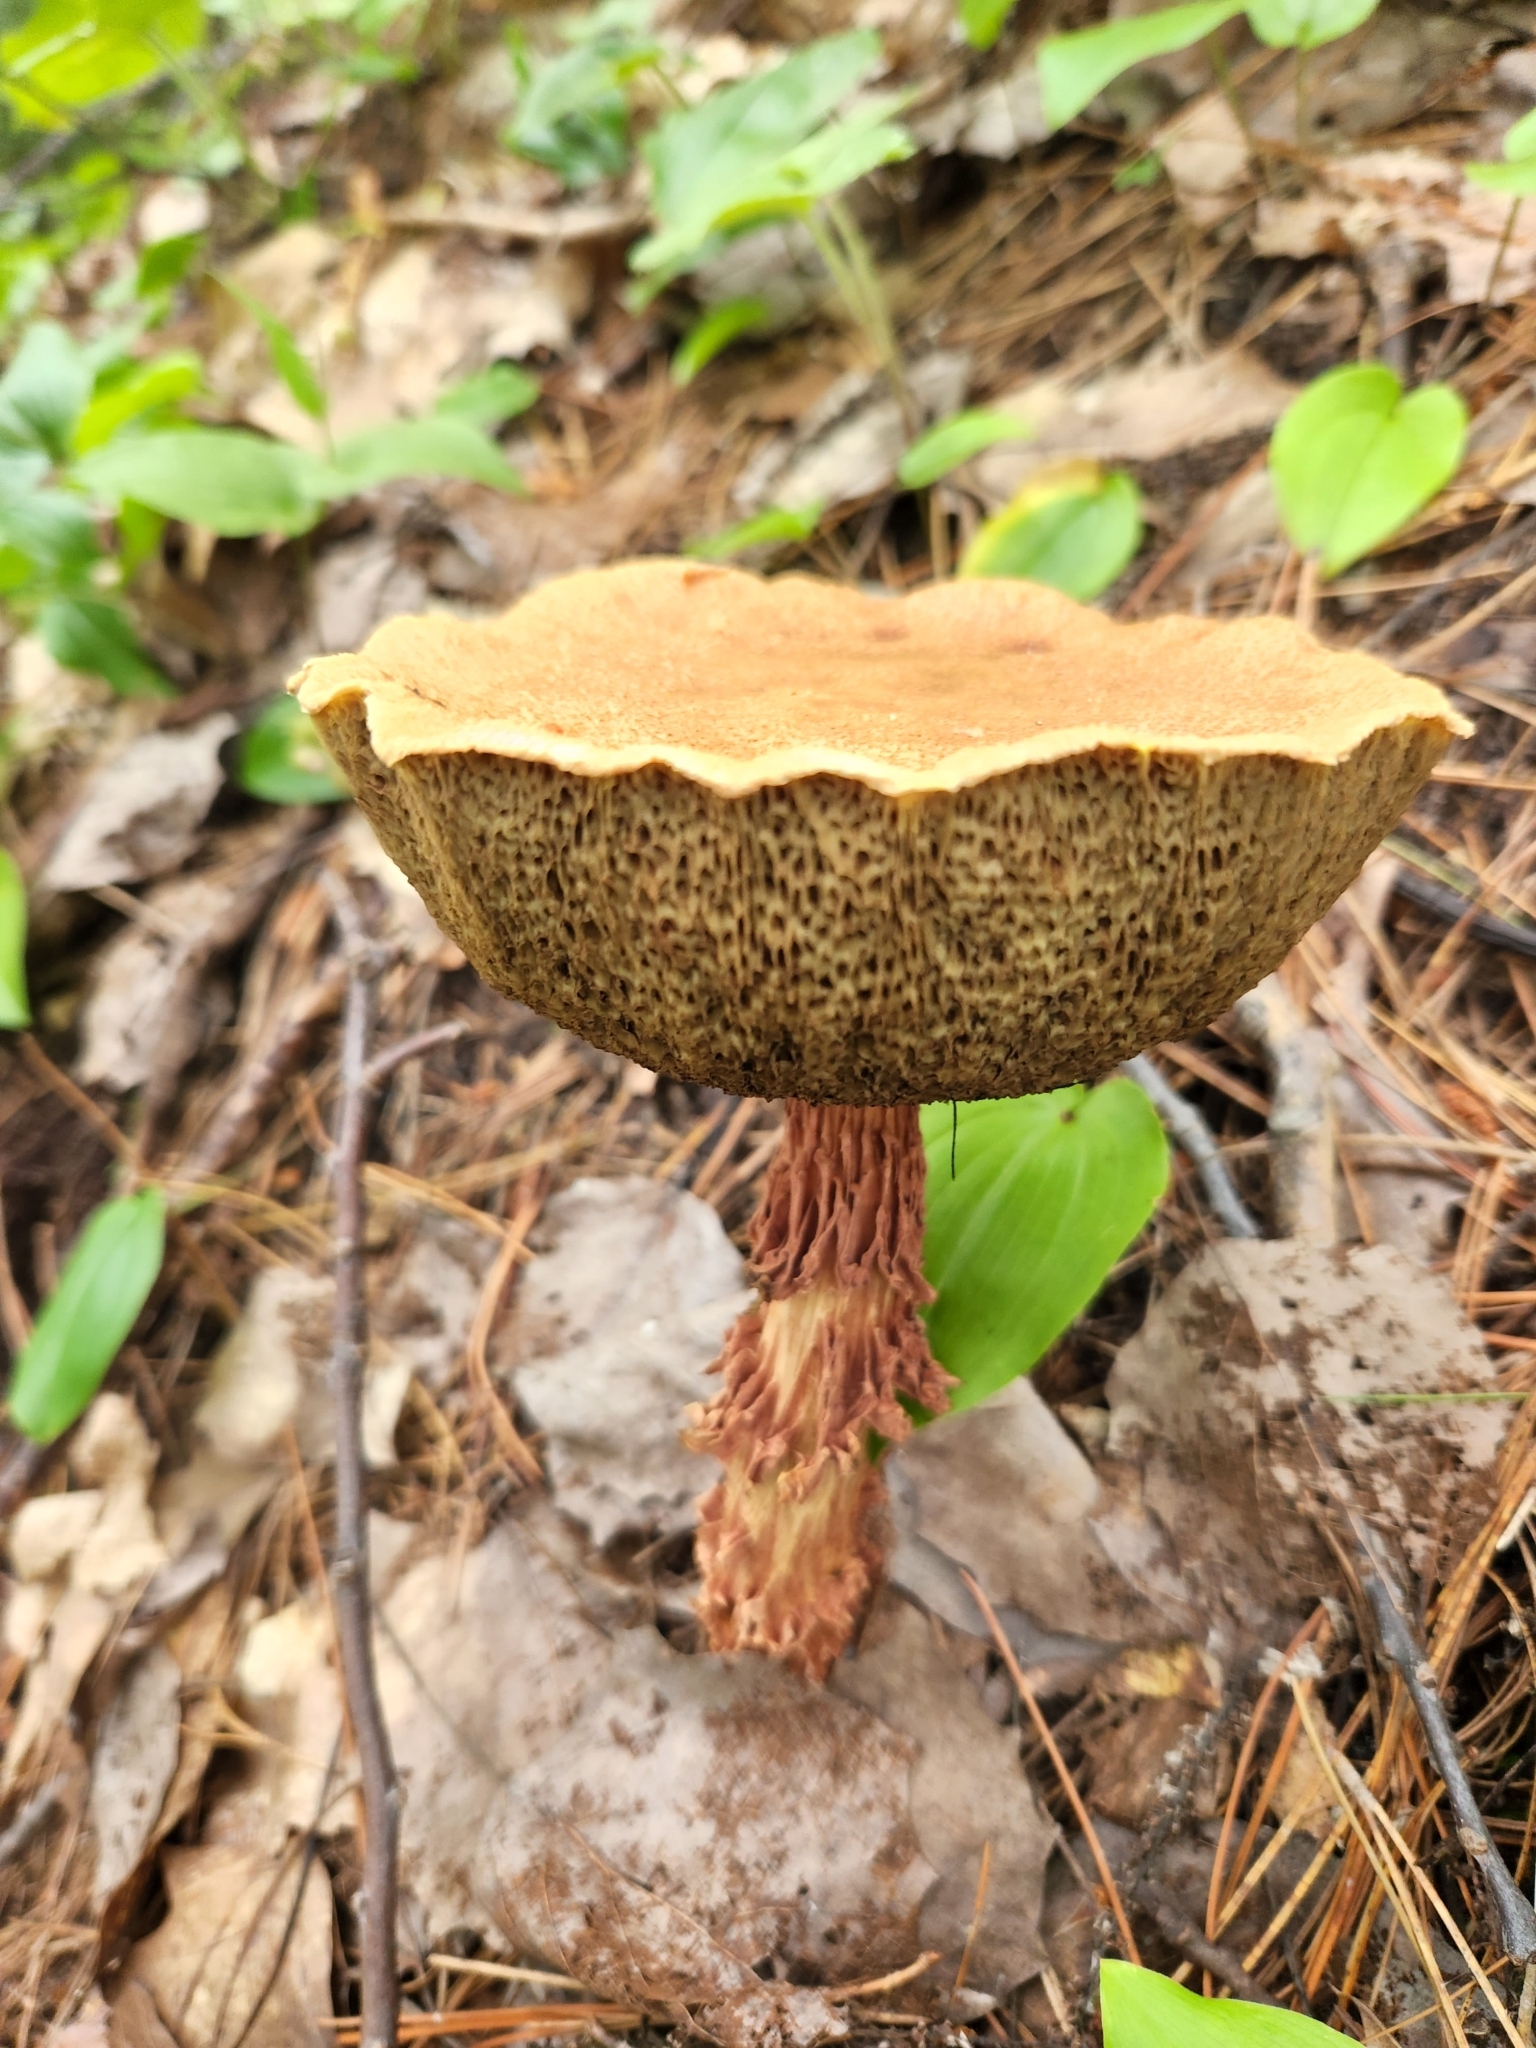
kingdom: Fungi
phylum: Basidiomycota
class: Agaricomycetes
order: Boletales
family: Boletaceae
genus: Aureoboletus
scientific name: Aureoboletus russellii
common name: Russell's bolete
